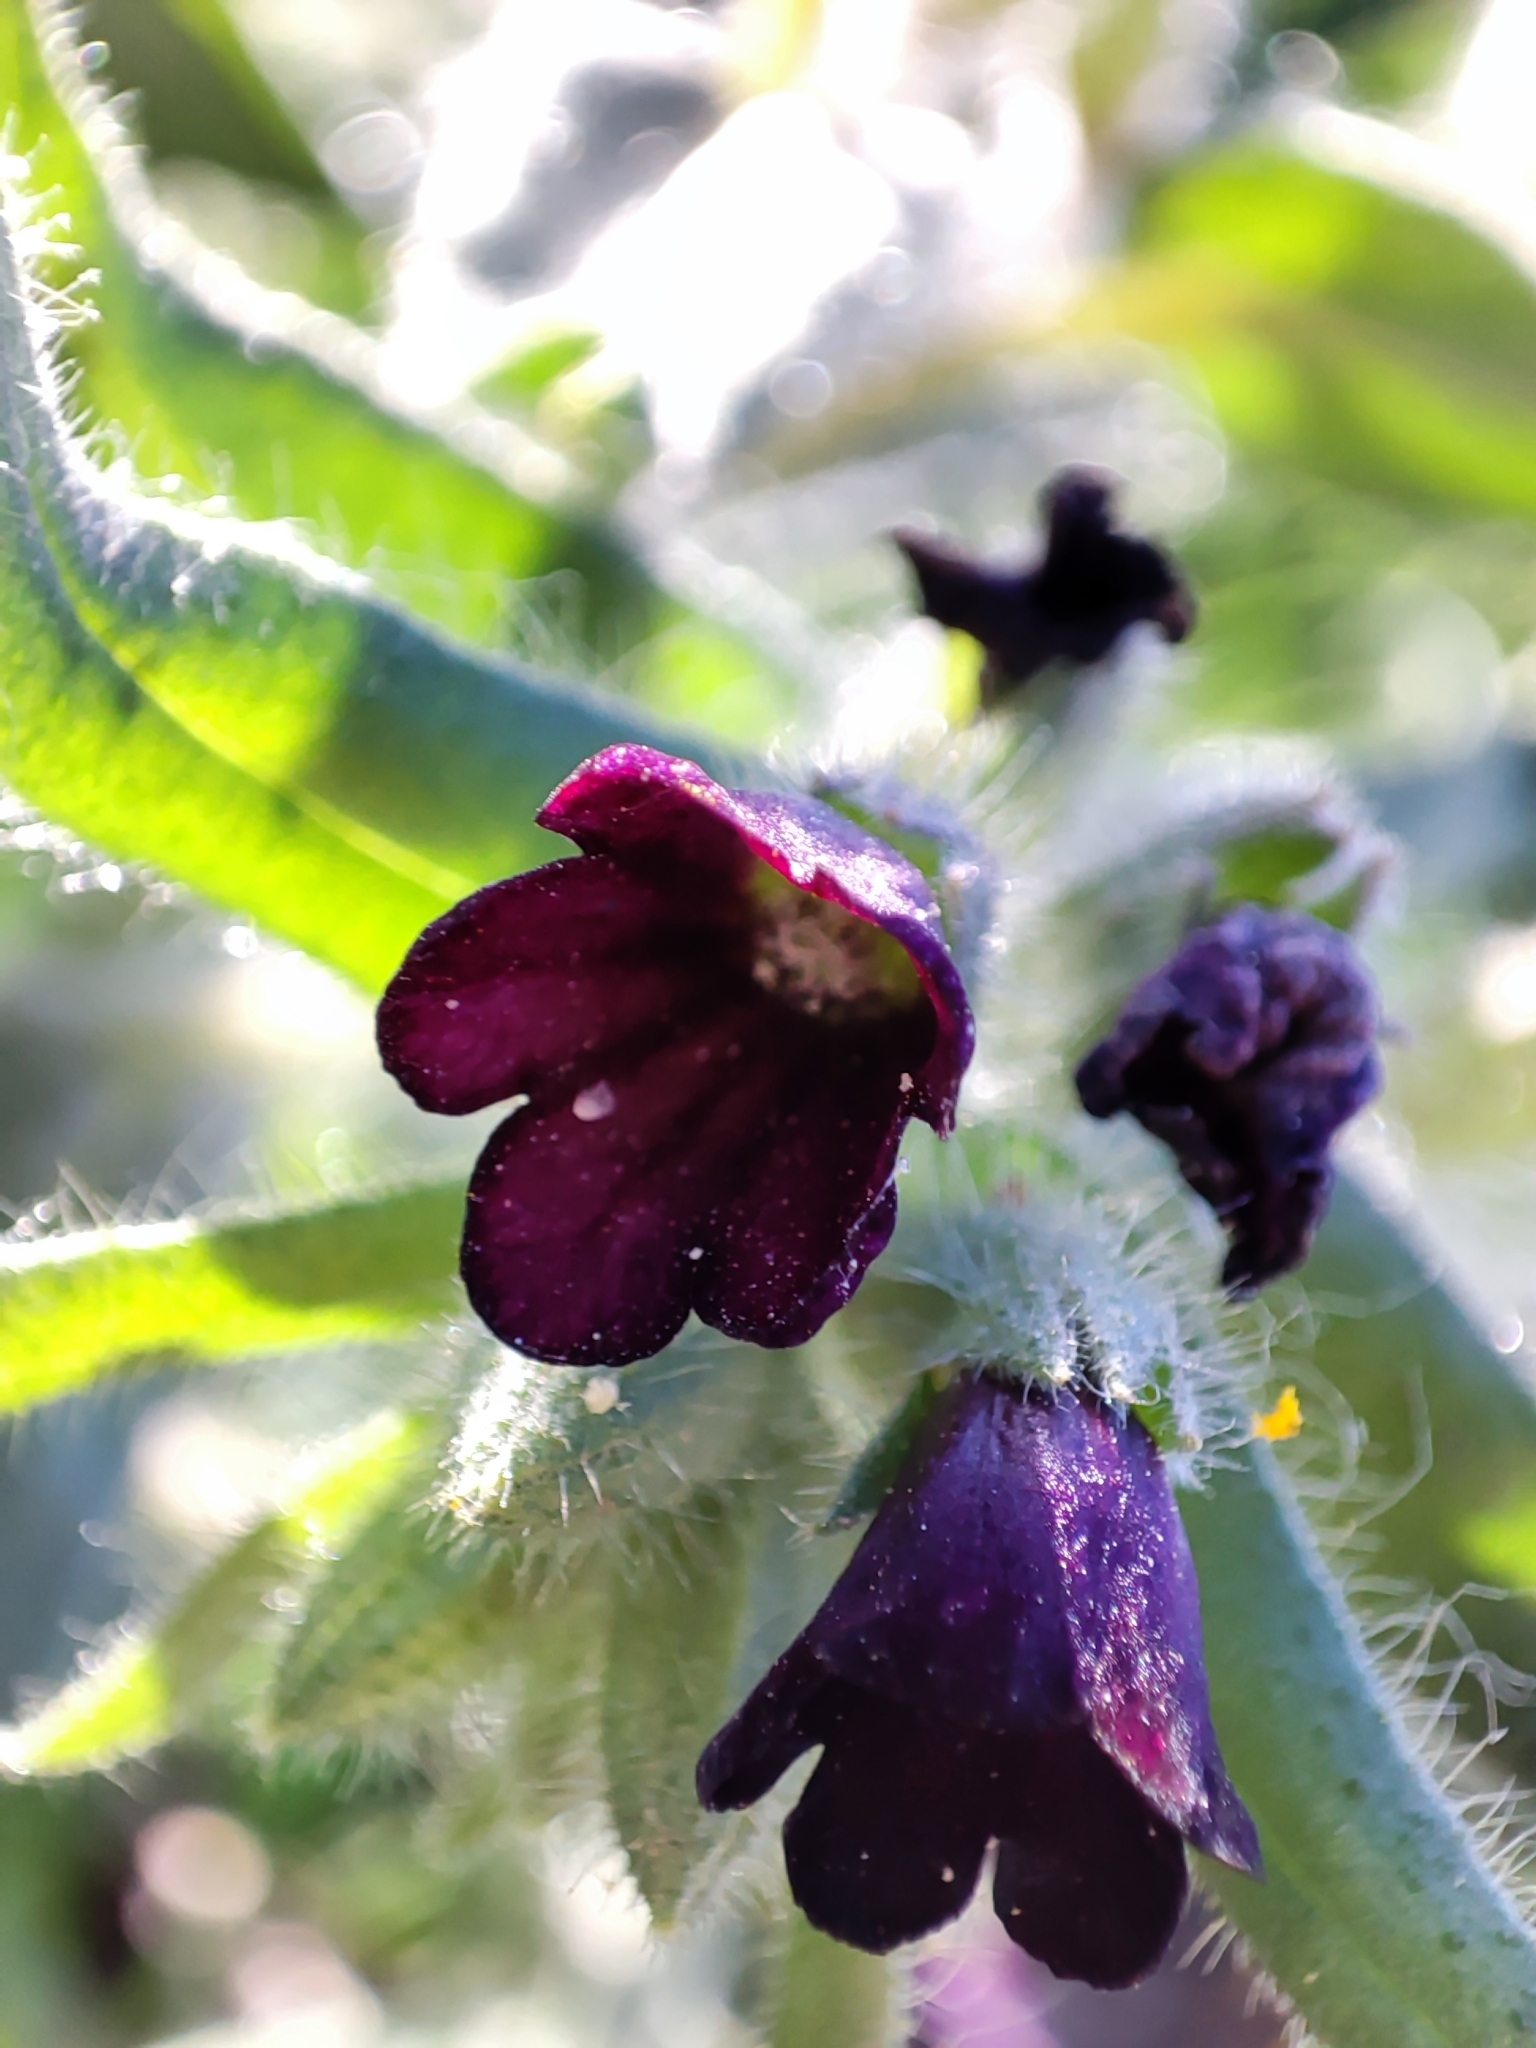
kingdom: Plantae
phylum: Tracheophyta
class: Magnoliopsida
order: Boraginales
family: Boraginaceae
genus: Nonea
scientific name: Nonea pulla
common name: Brown nonea
